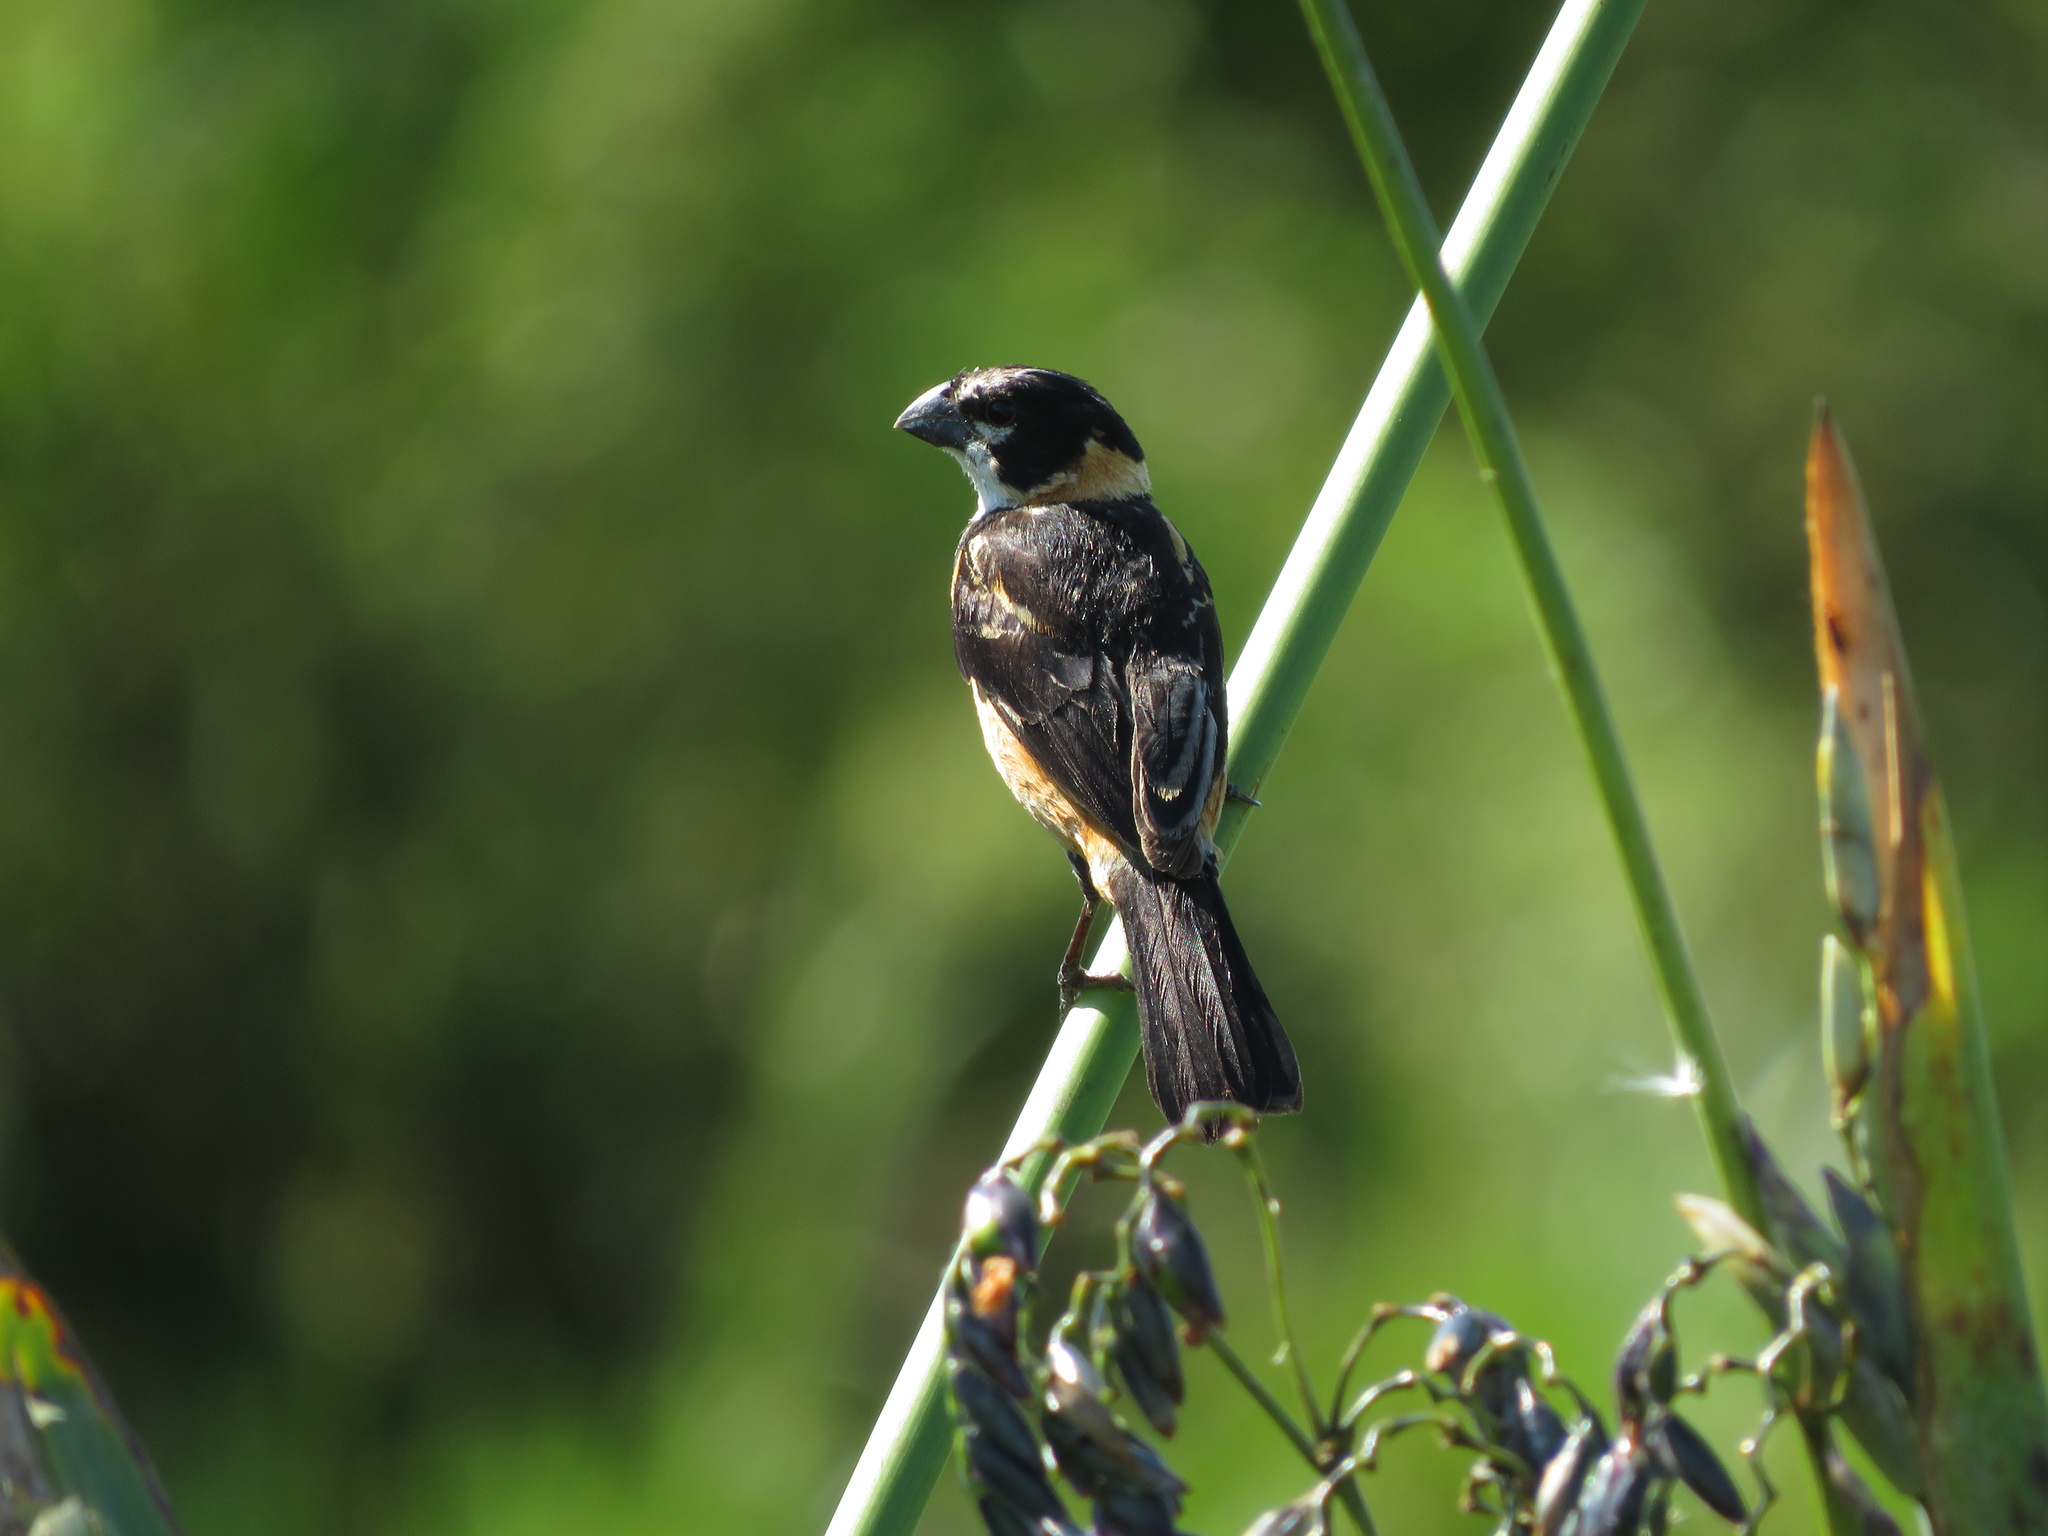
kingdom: Animalia
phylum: Chordata
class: Aves
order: Passeriformes
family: Thraupidae
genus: Sporophila
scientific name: Sporophila collaris
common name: Rusty-collared seedeater
